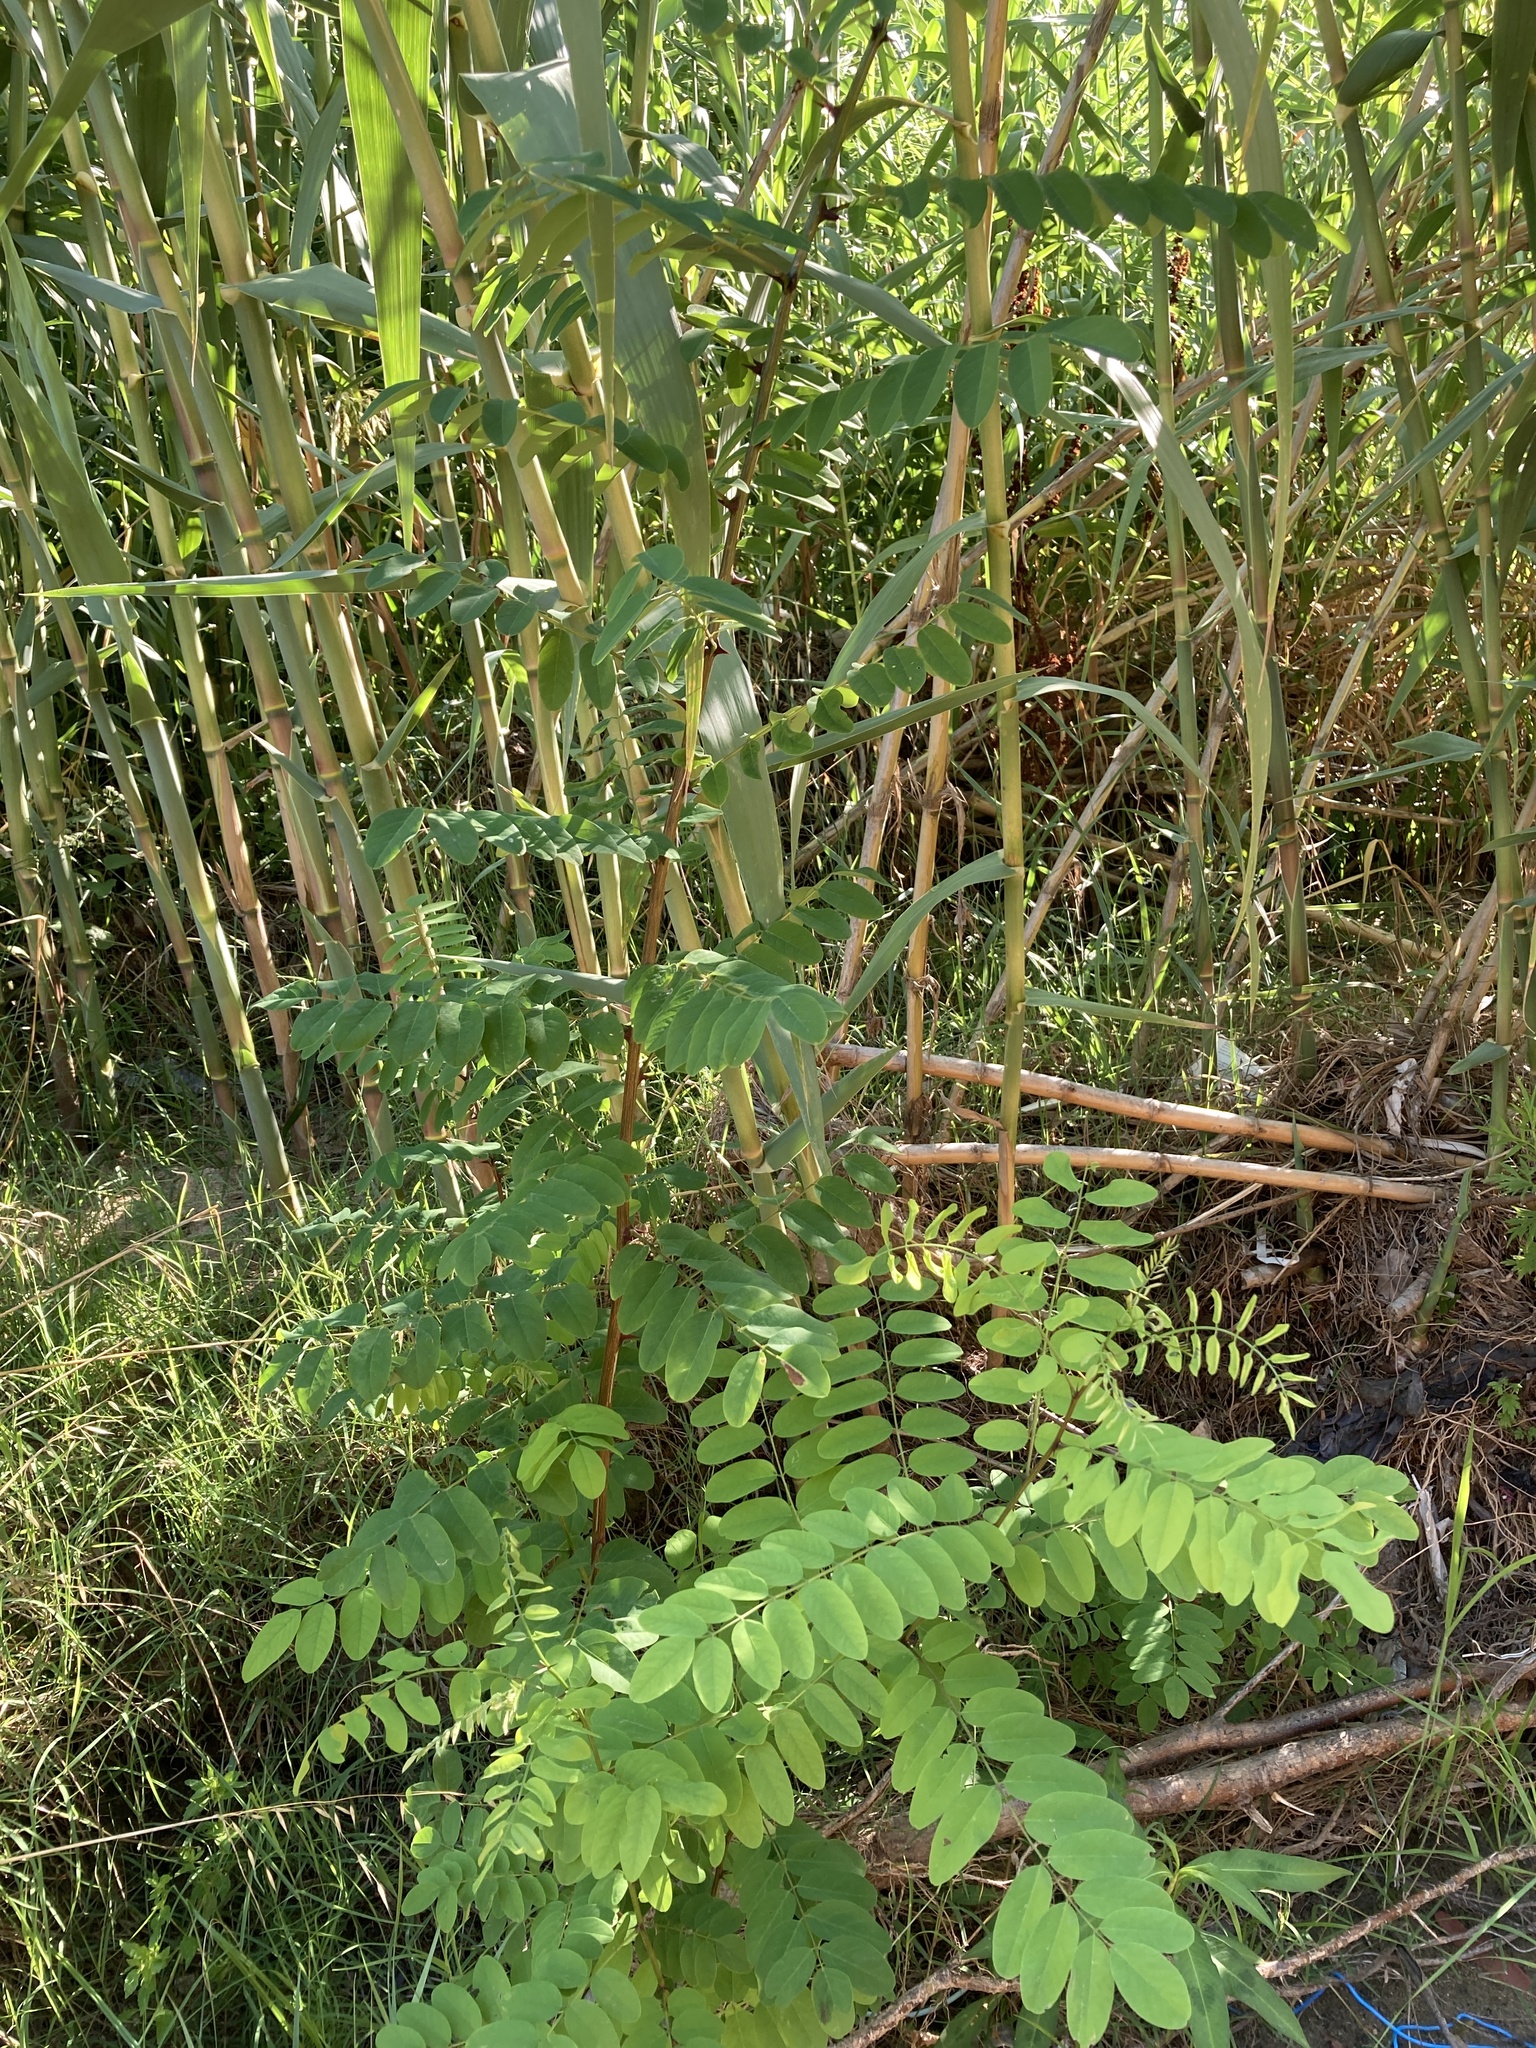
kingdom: Plantae
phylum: Tracheophyta
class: Magnoliopsida
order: Fabales
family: Fabaceae
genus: Robinia
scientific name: Robinia pseudoacacia
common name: Black locust
